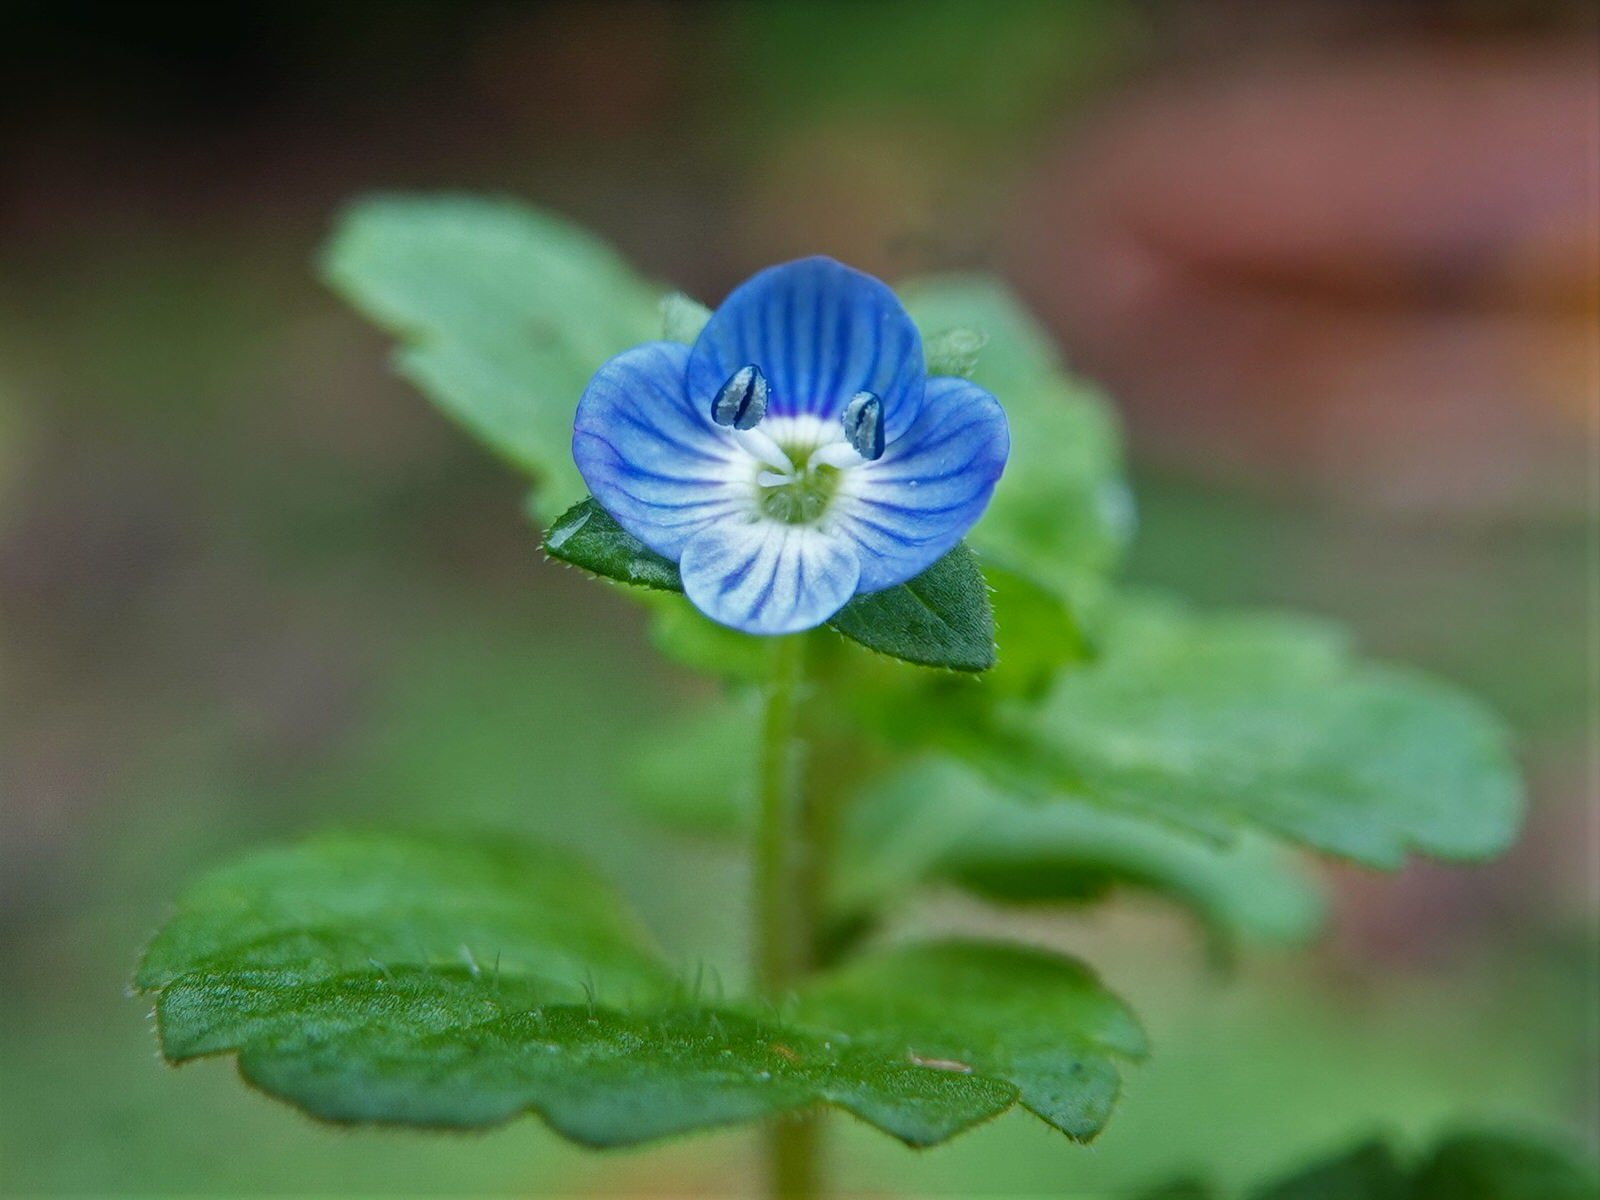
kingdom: Plantae
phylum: Tracheophyta
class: Magnoliopsida
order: Lamiales
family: Plantaginaceae
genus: Veronica
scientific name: Veronica persica
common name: Common field-speedwell
